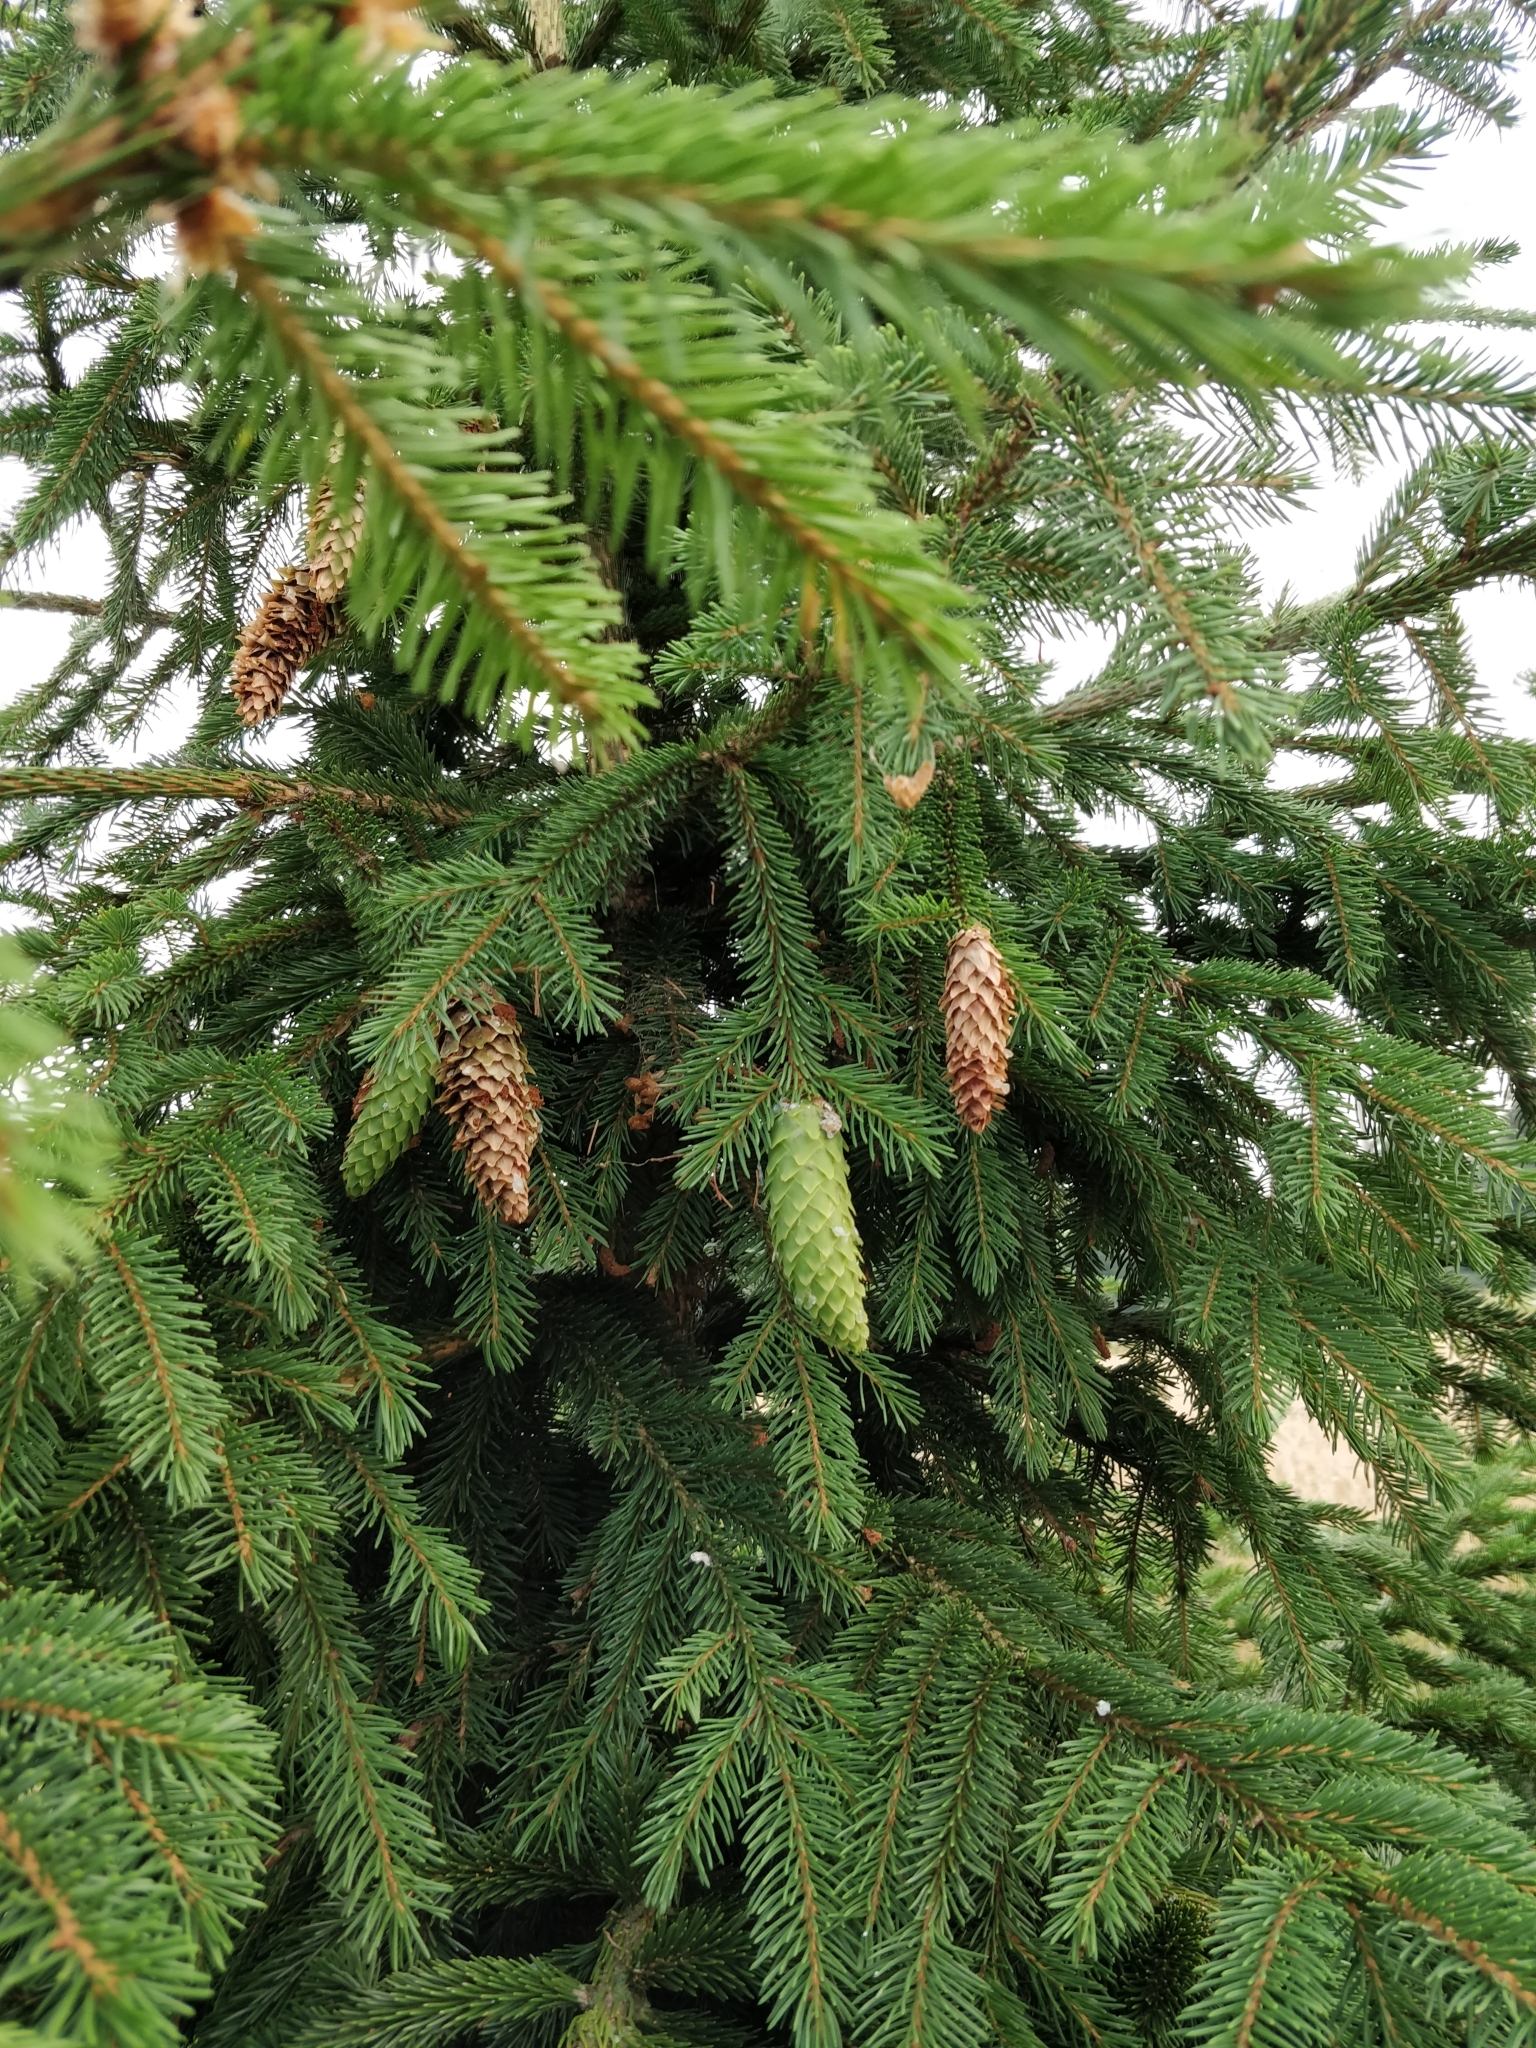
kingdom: Plantae
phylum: Tracheophyta
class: Pinopsida
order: Pinales
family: Pinaceae
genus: Picea
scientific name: Picea abies
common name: Norway spruce
